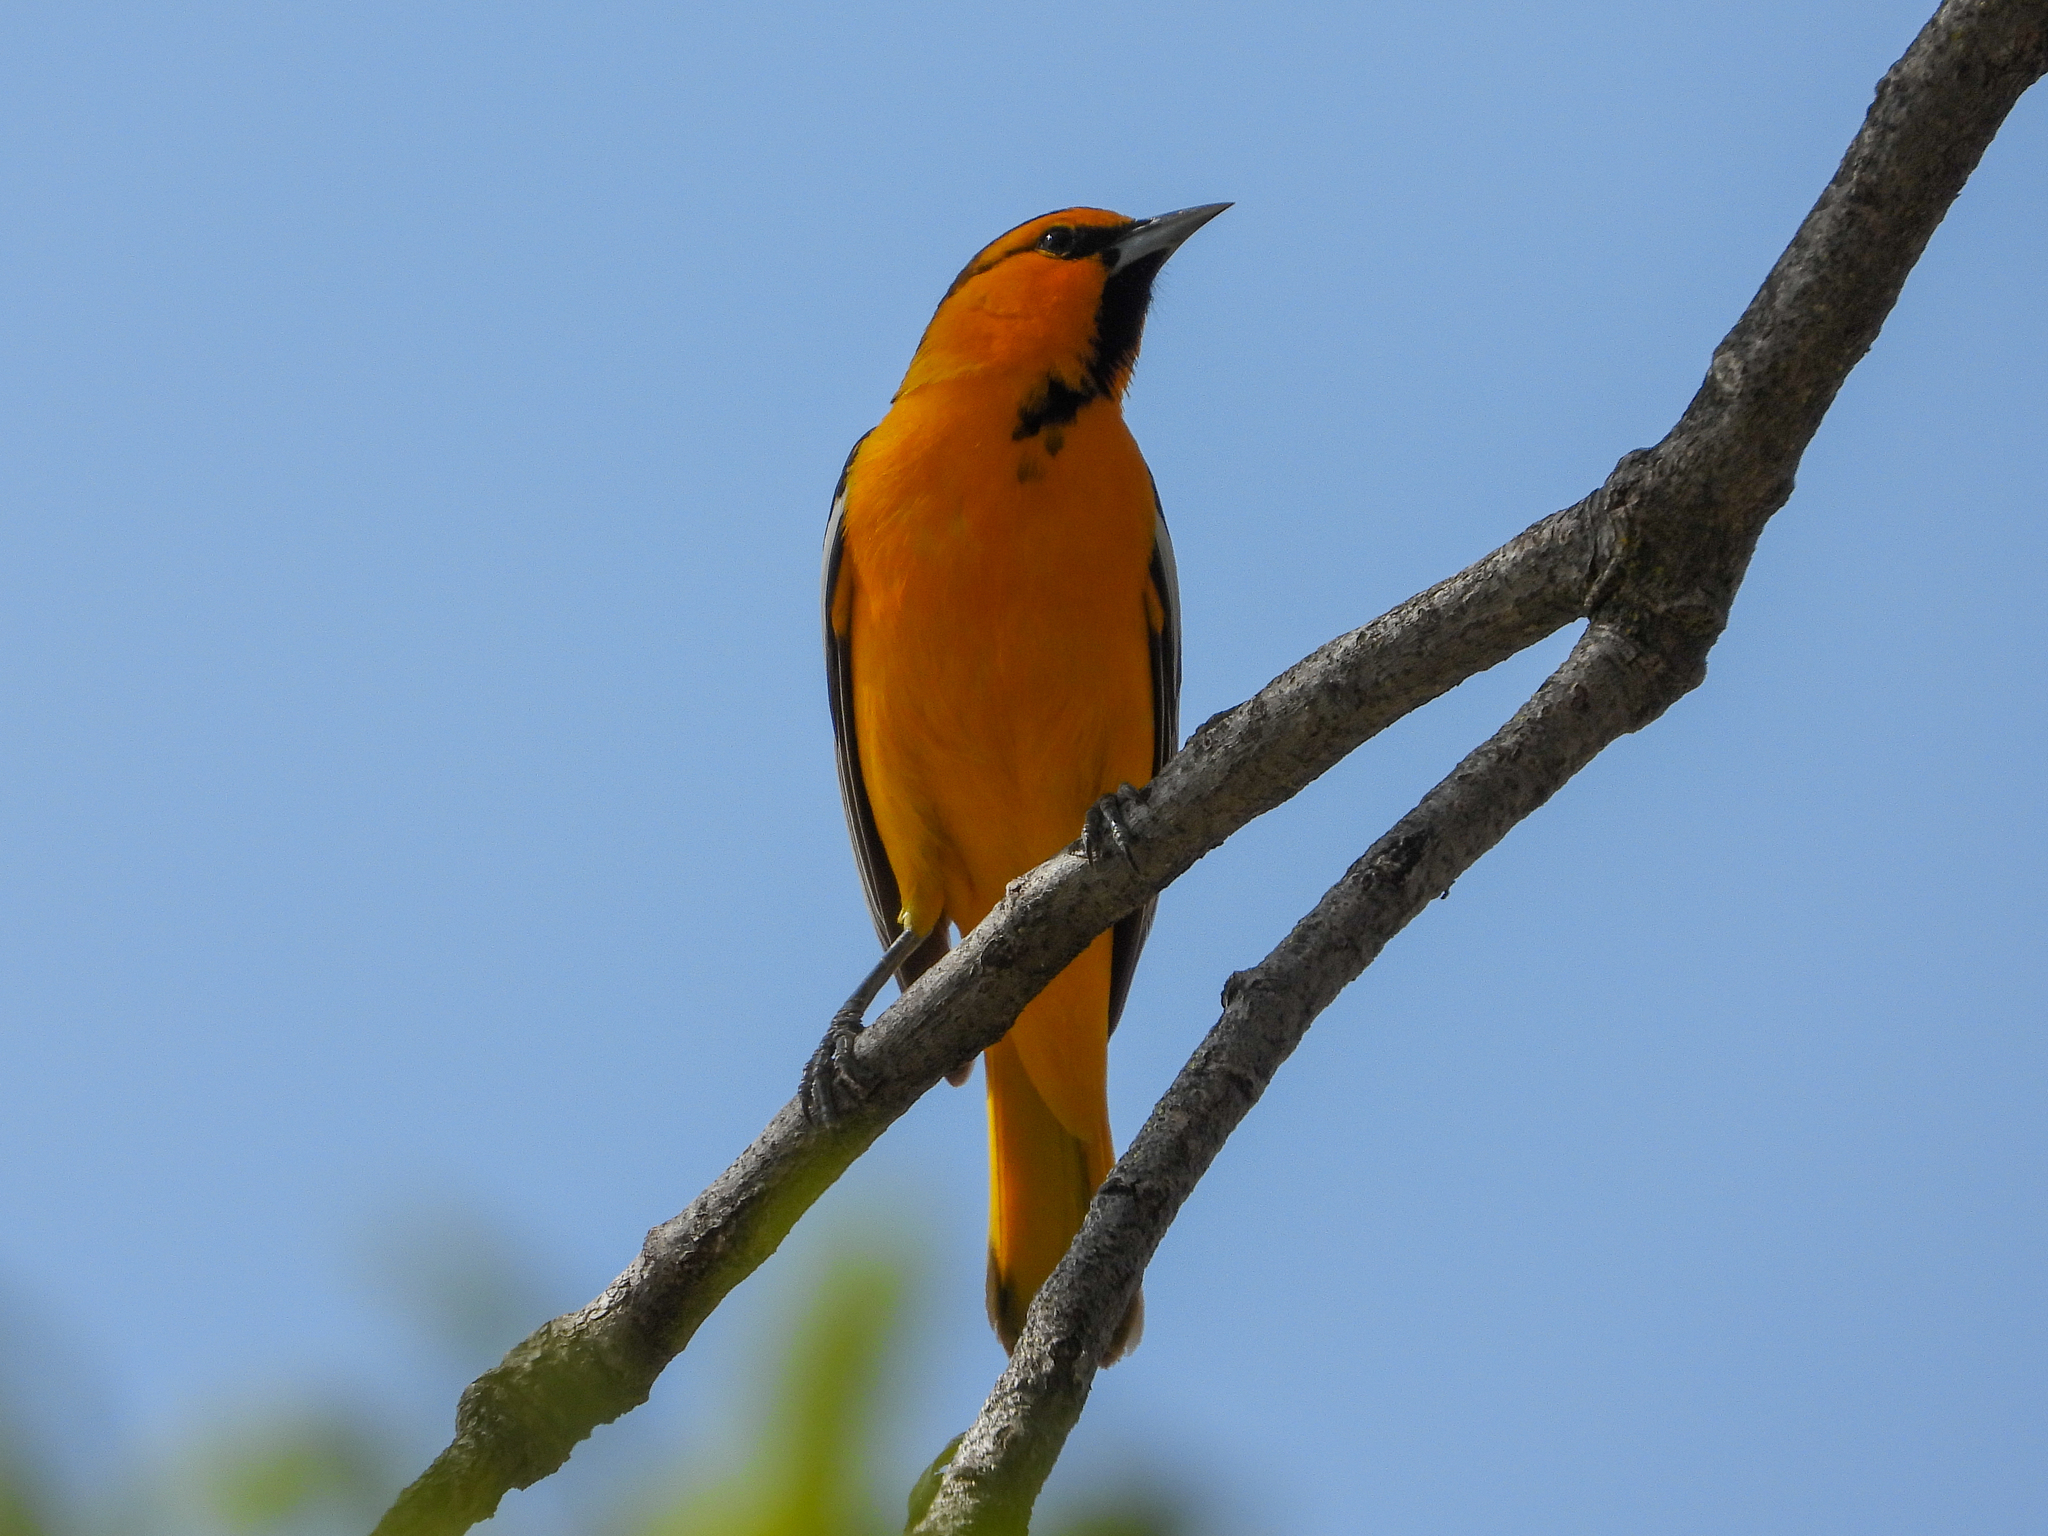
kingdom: Animalia
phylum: Chordata
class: Aves
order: Passeriformes
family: Icteridae
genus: Icterus
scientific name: Icterus bullockii
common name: Bullock's oriole
